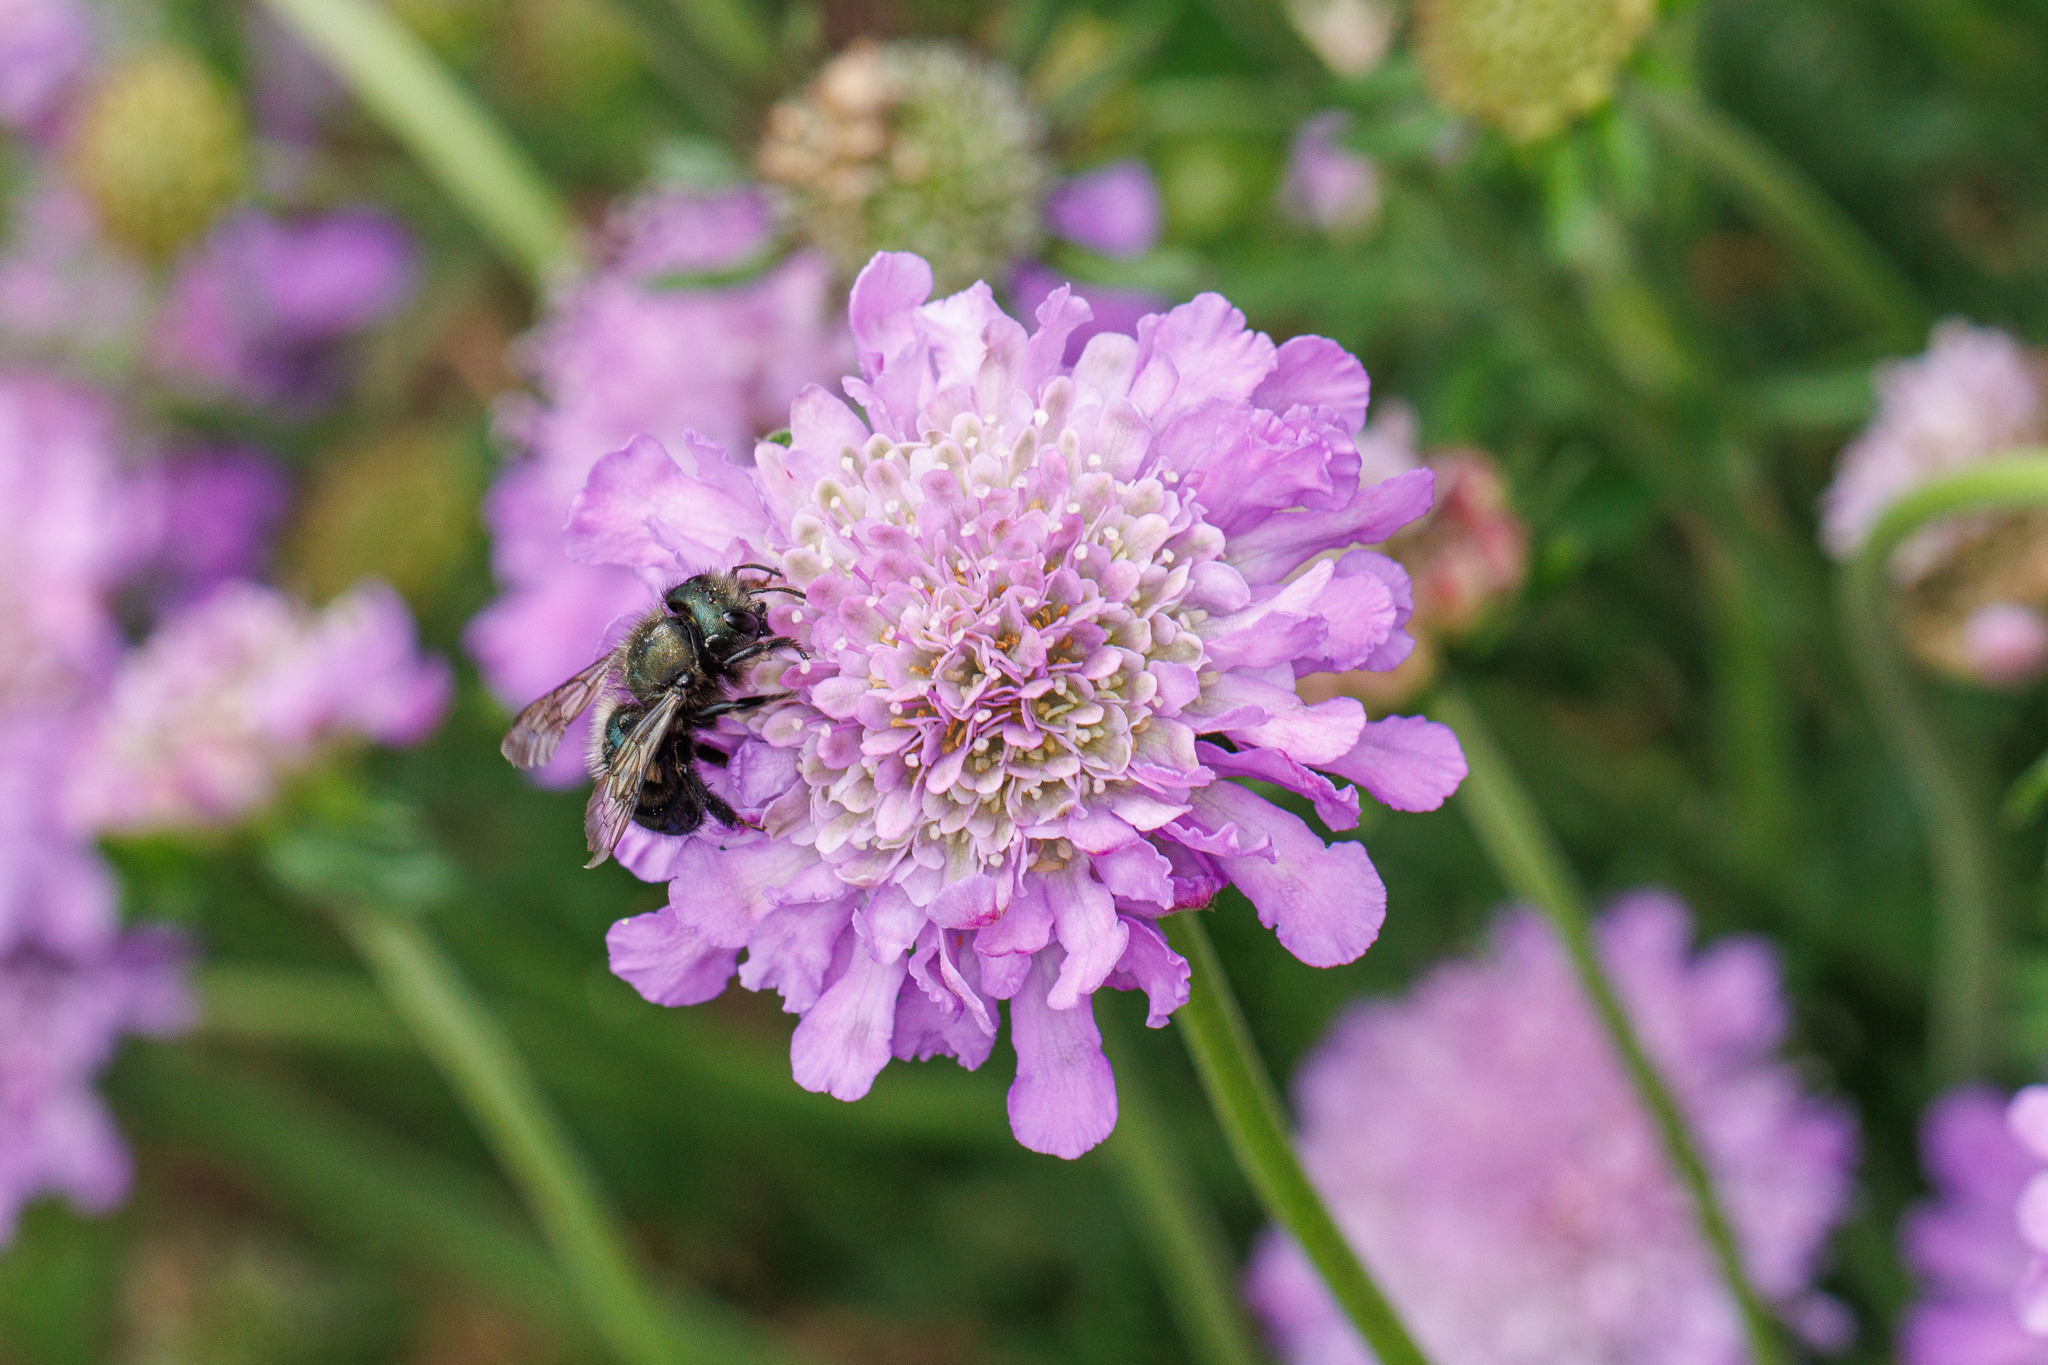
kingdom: Animalia
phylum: Arthropoda
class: Insecta
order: Hymenoptera
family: Megachilidae
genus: Osmia
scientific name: Osmia lignaria
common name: Blue orchard bee
